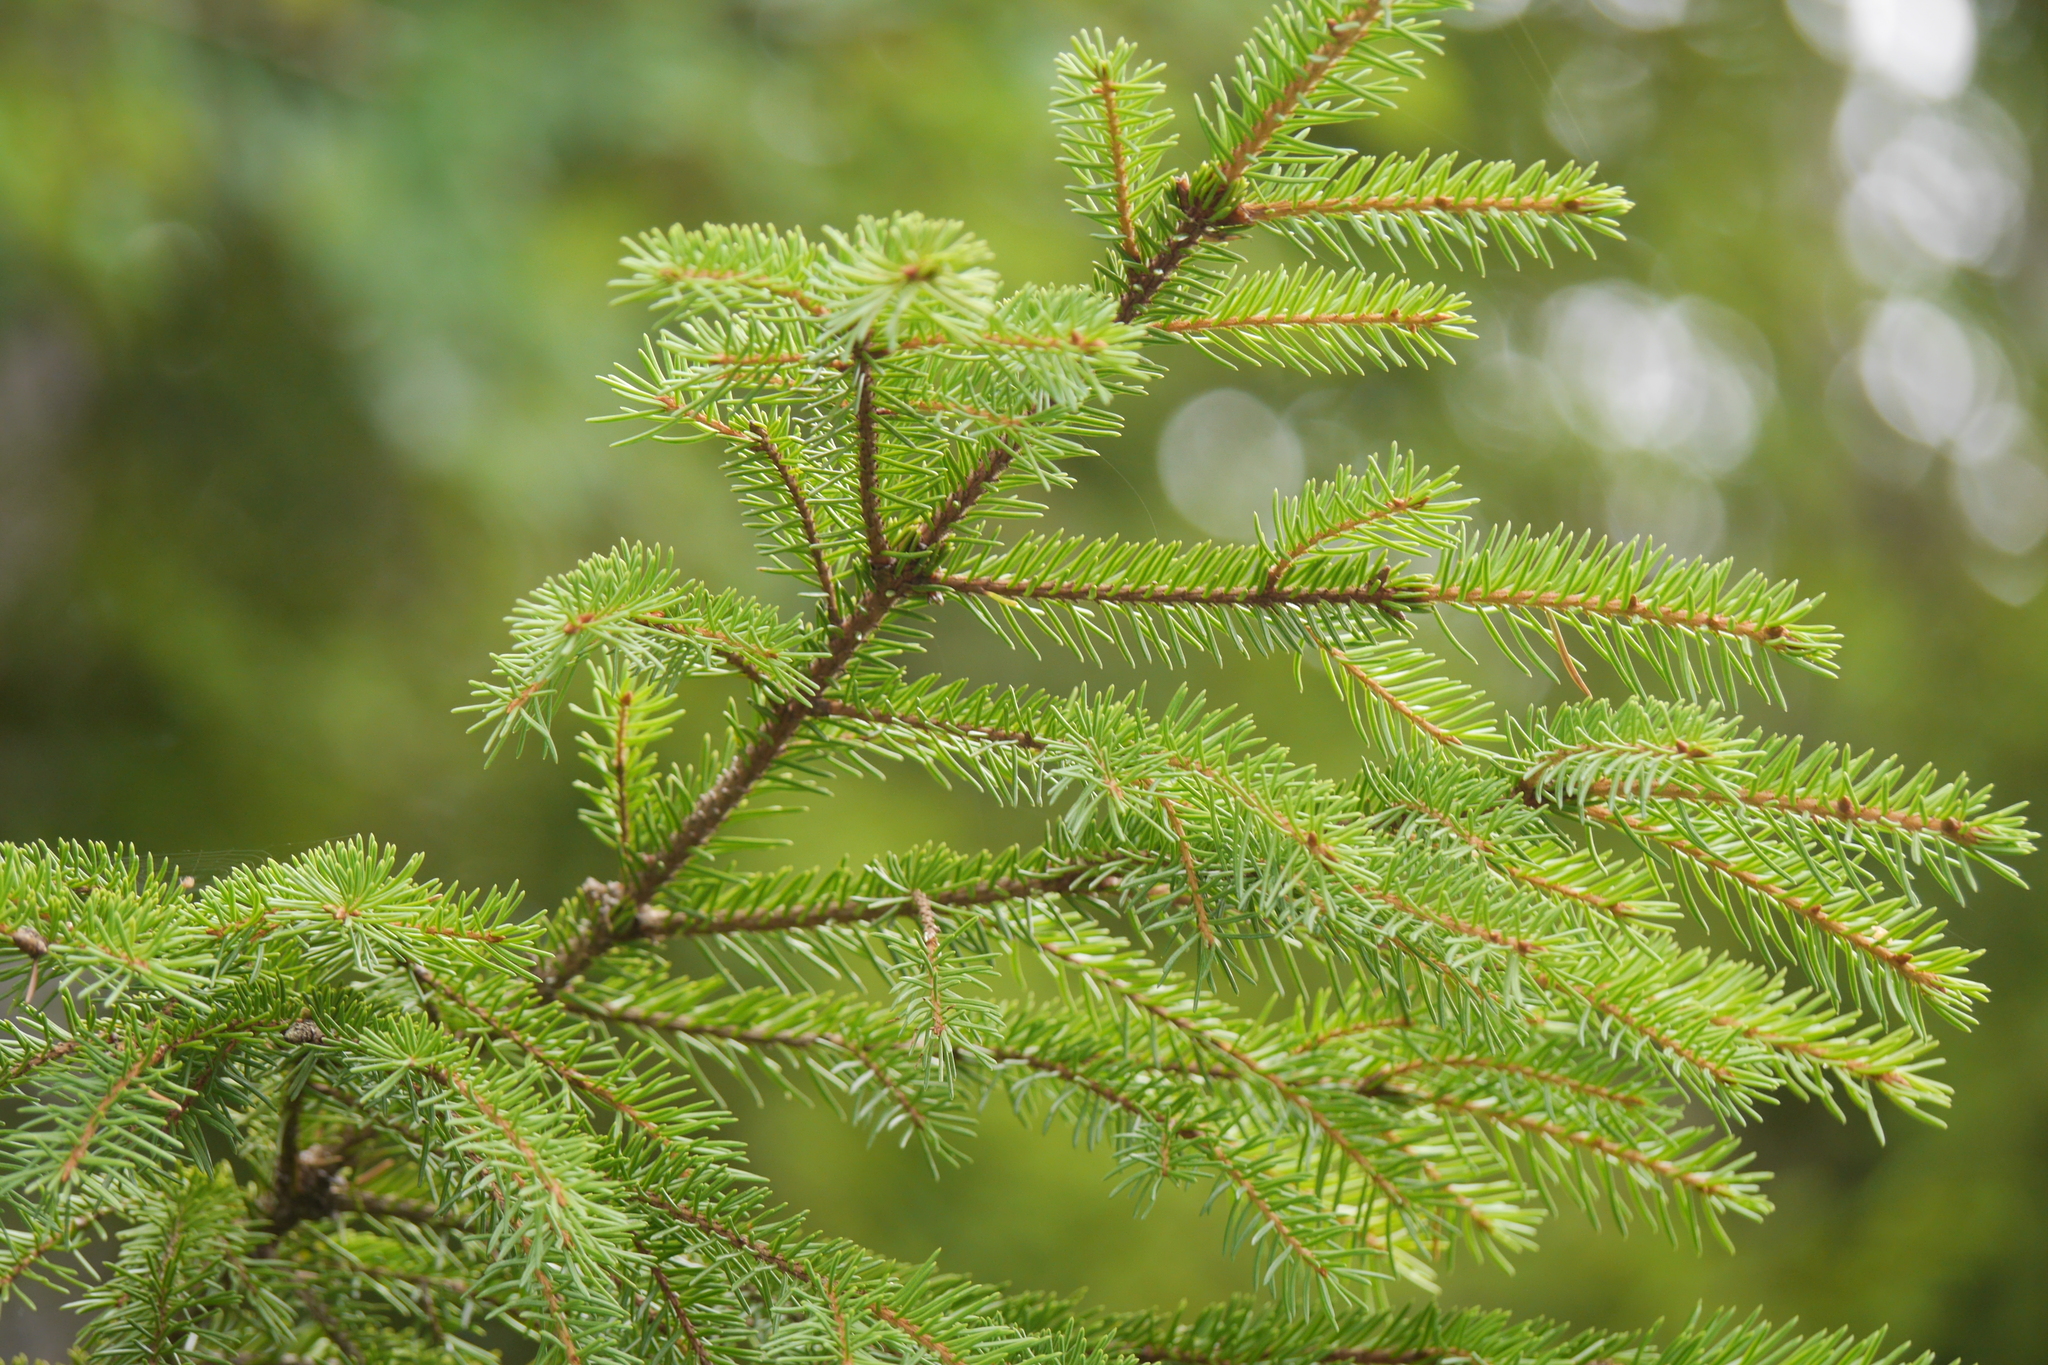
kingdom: Plantae
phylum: Tracheophyta
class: Pinopsida
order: Pinales
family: Pinaceae
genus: Picea
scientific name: Picea abies
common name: Norway spruce
